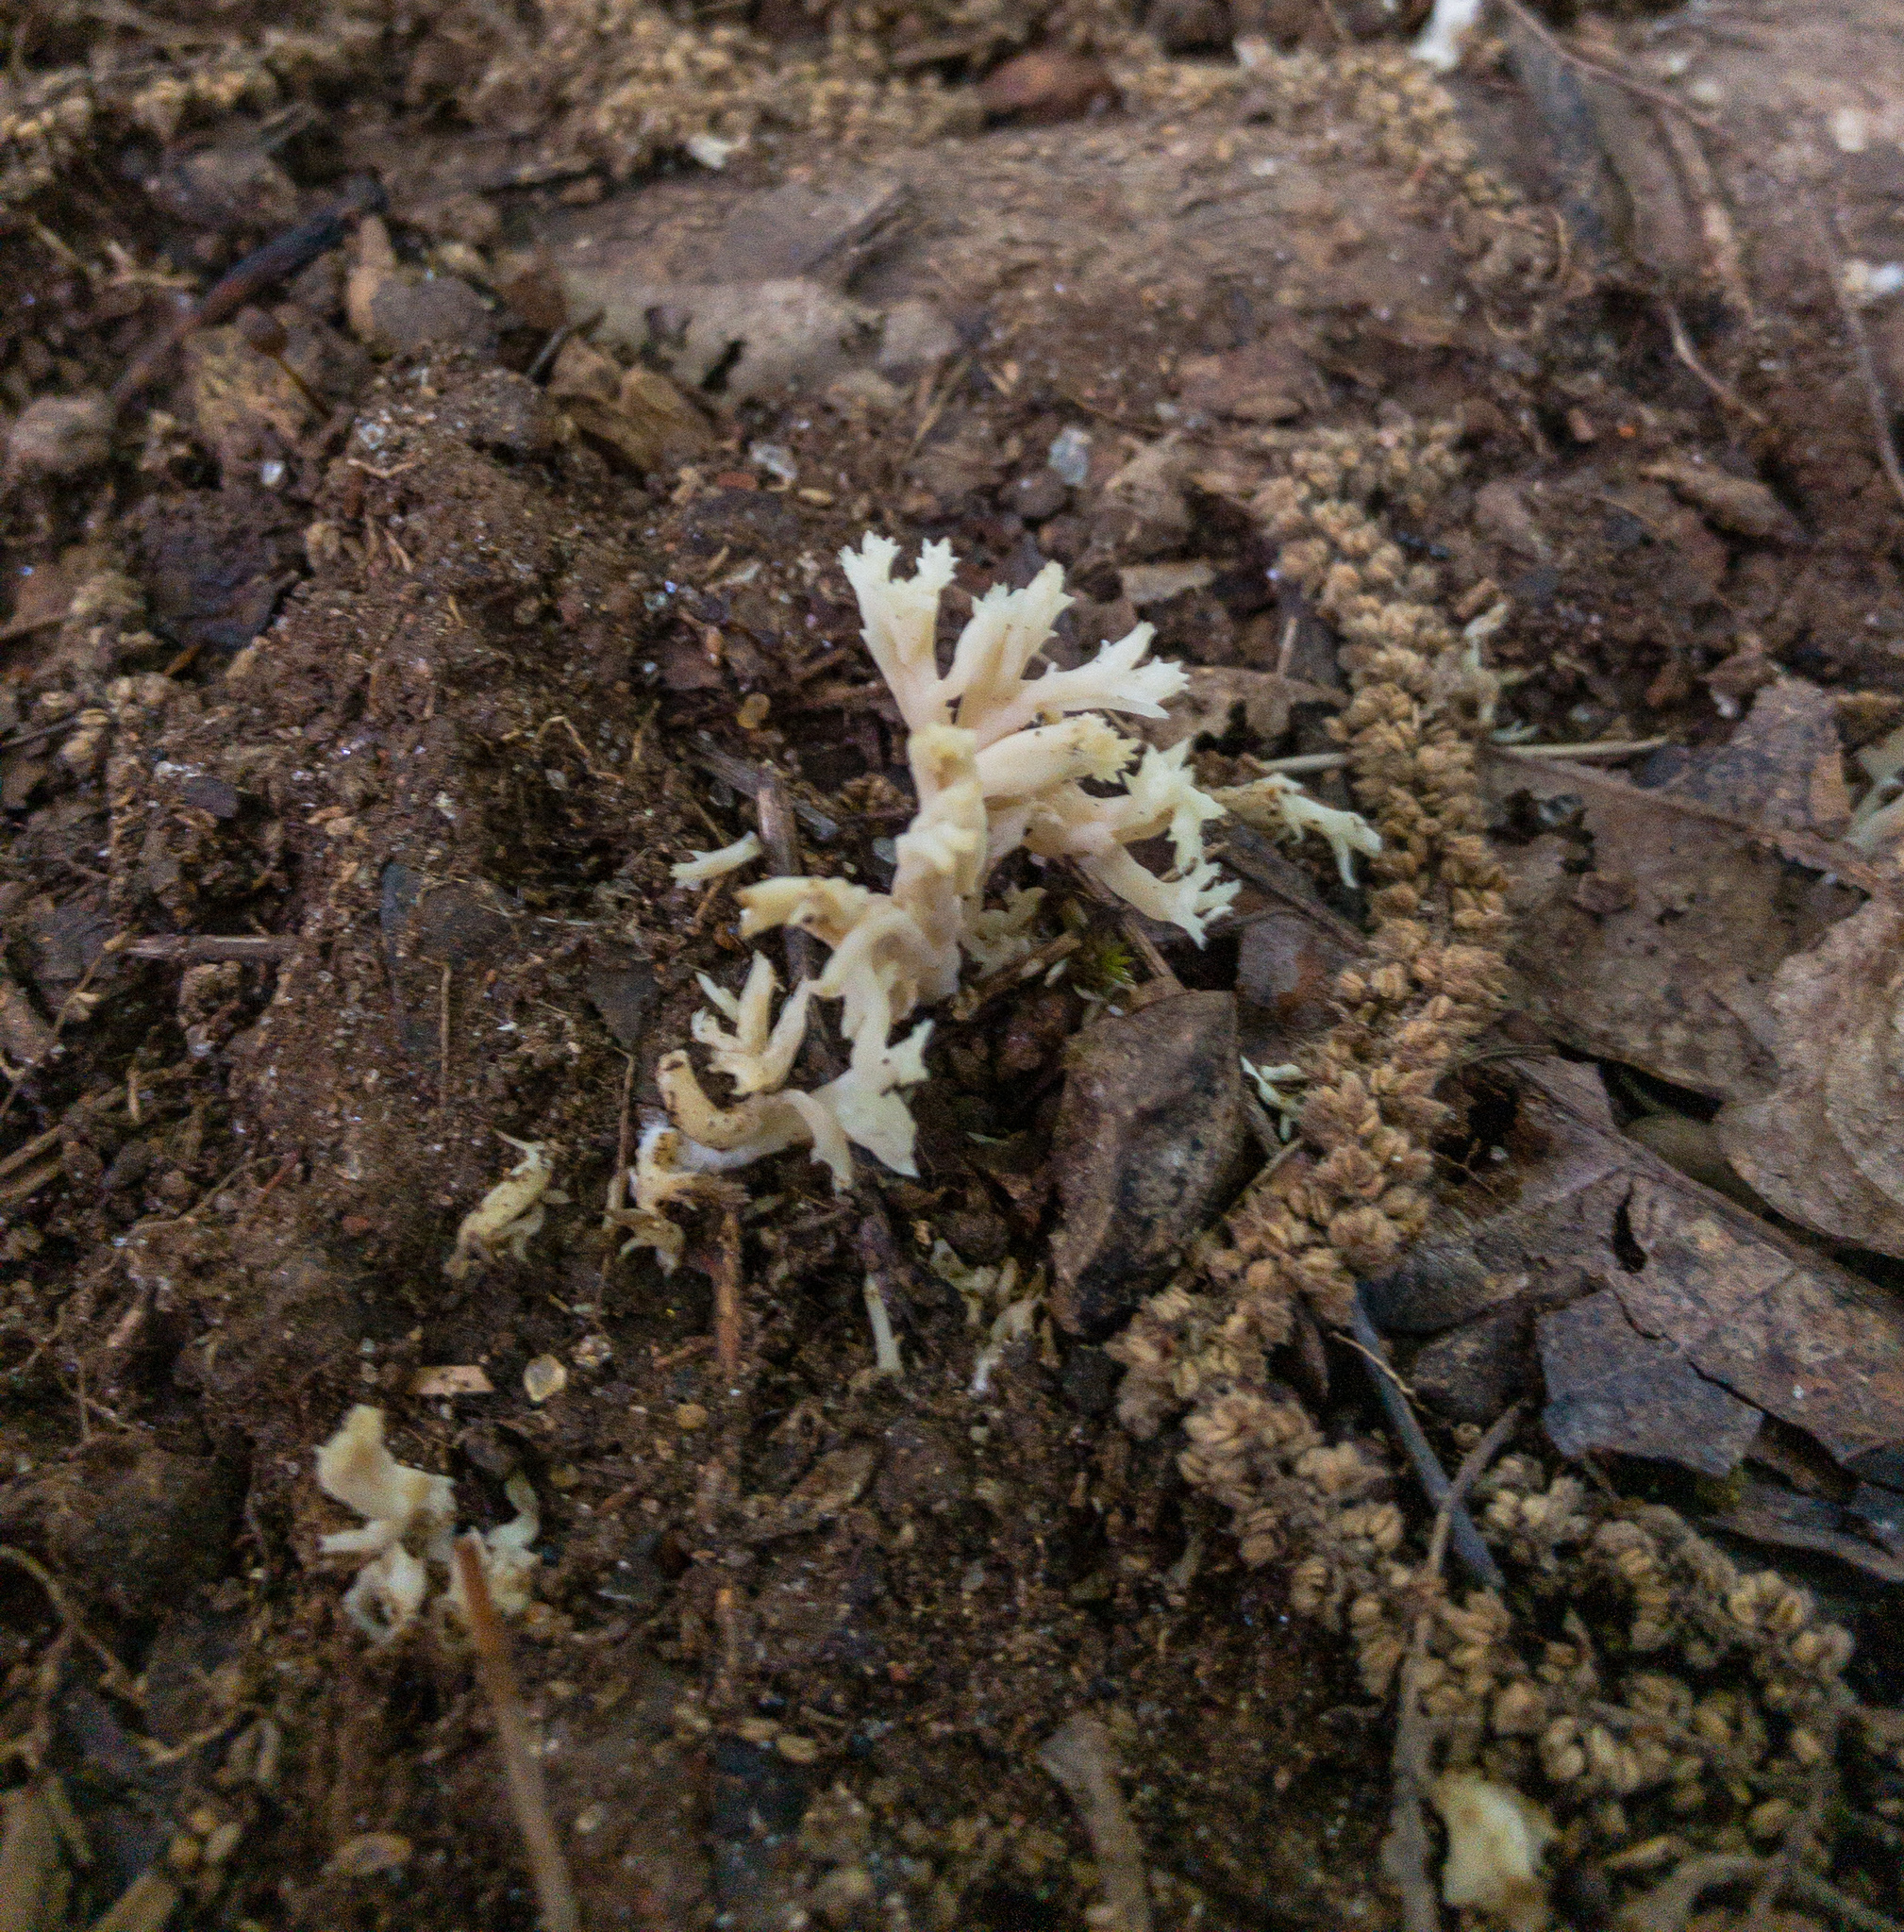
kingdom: Fungi
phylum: Basidiomycota
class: Agaricomycetes
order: Cantharellales
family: Hydnaceae
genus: Clavulina
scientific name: Clavulina coralloides
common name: Crested coral
